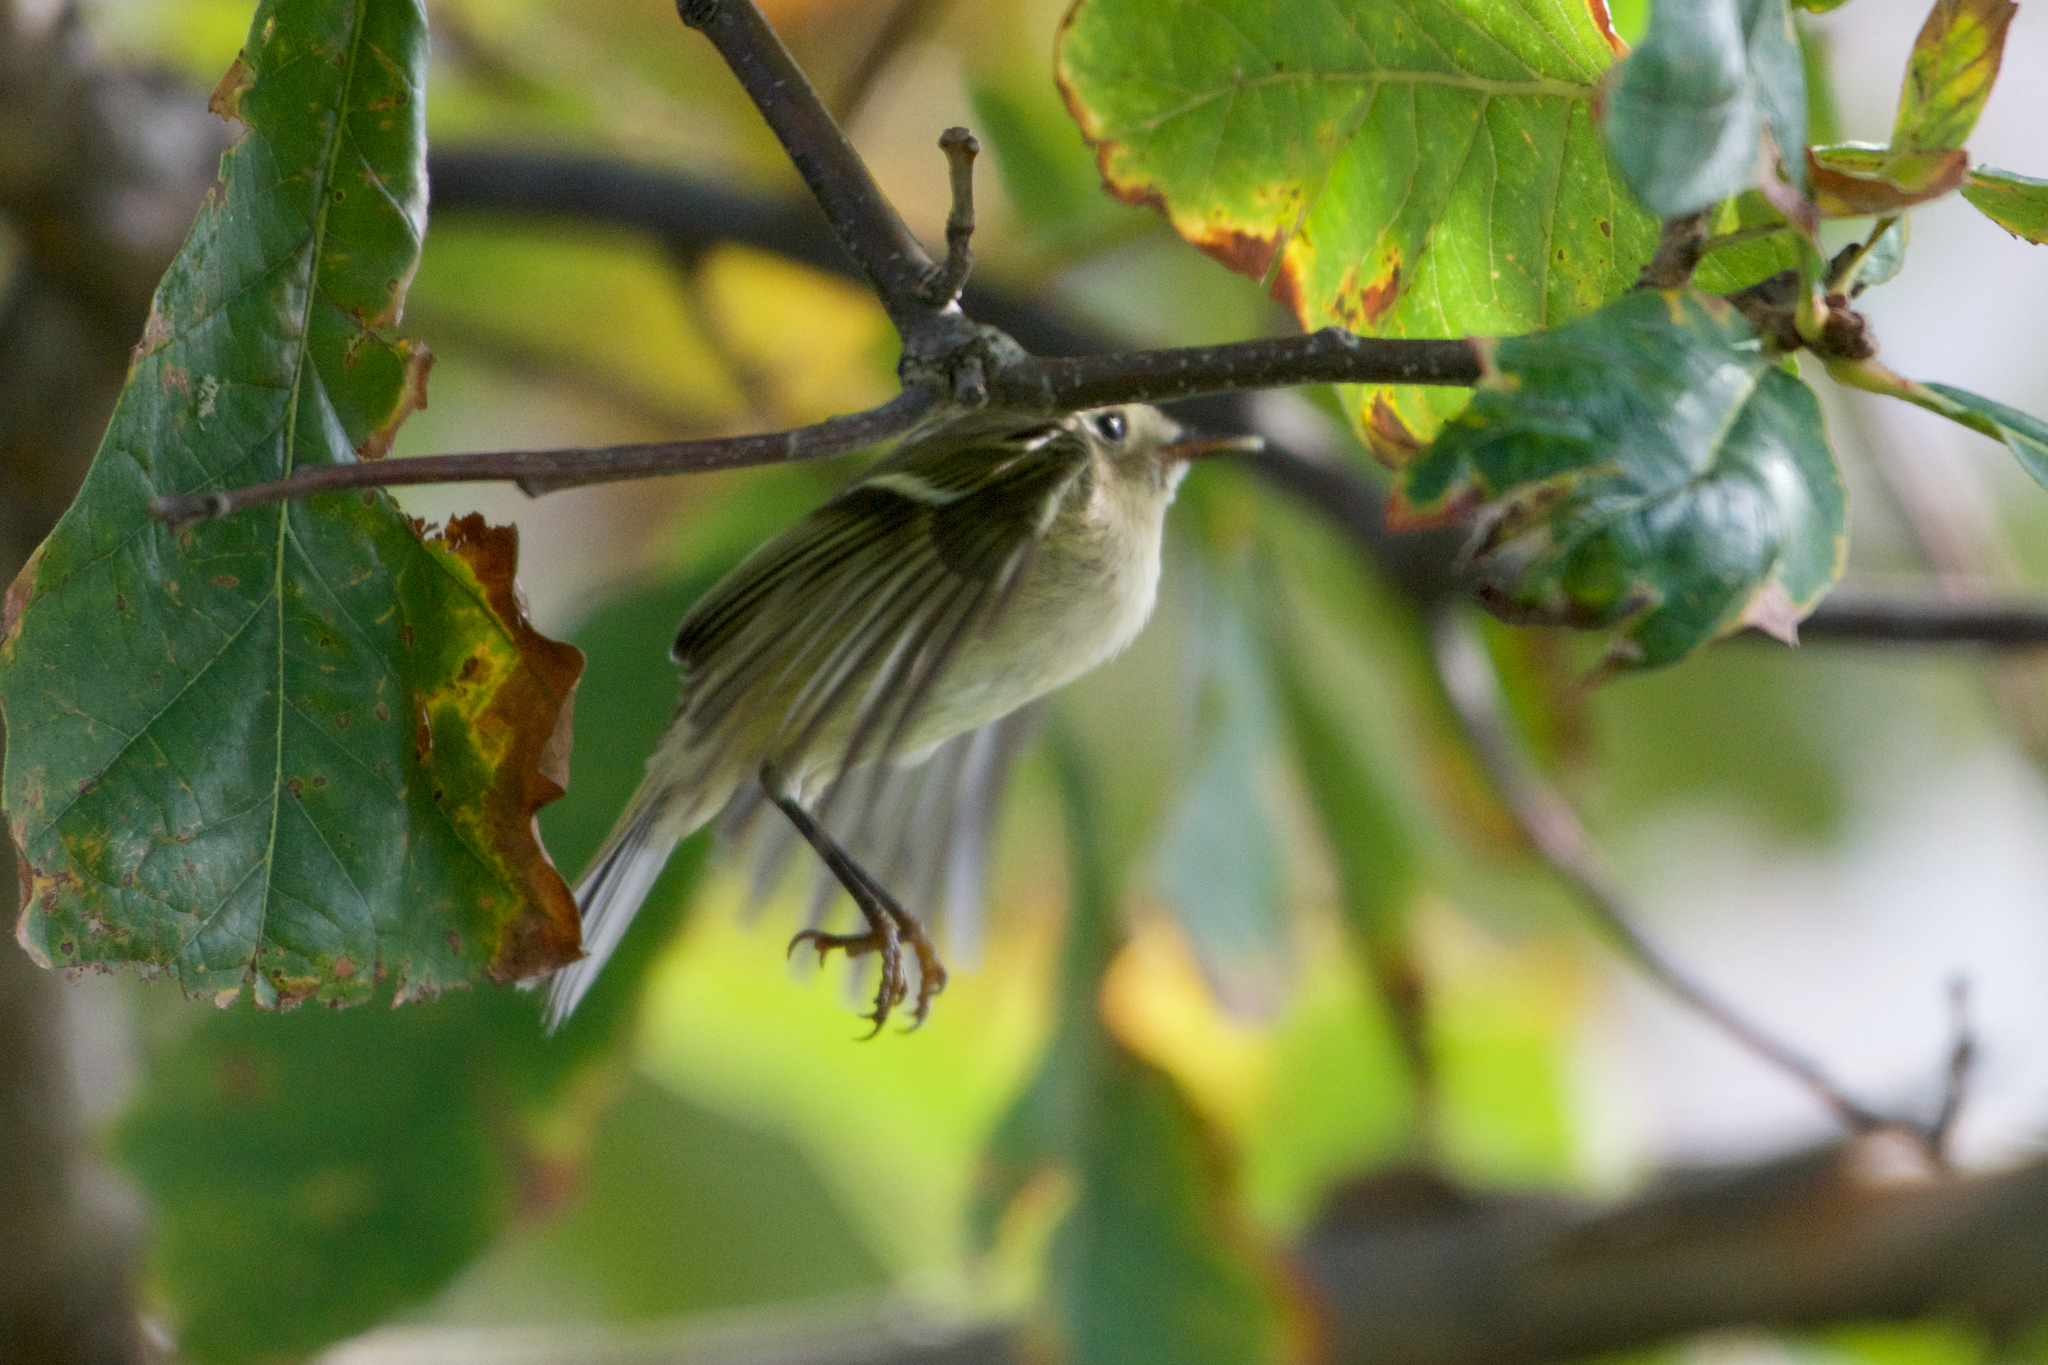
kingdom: Animalia
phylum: Chordata
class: Aves
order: Passeriformes
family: Regulidae
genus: Regulus
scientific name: Regulus calendula
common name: Ruby-crowned kinglet
